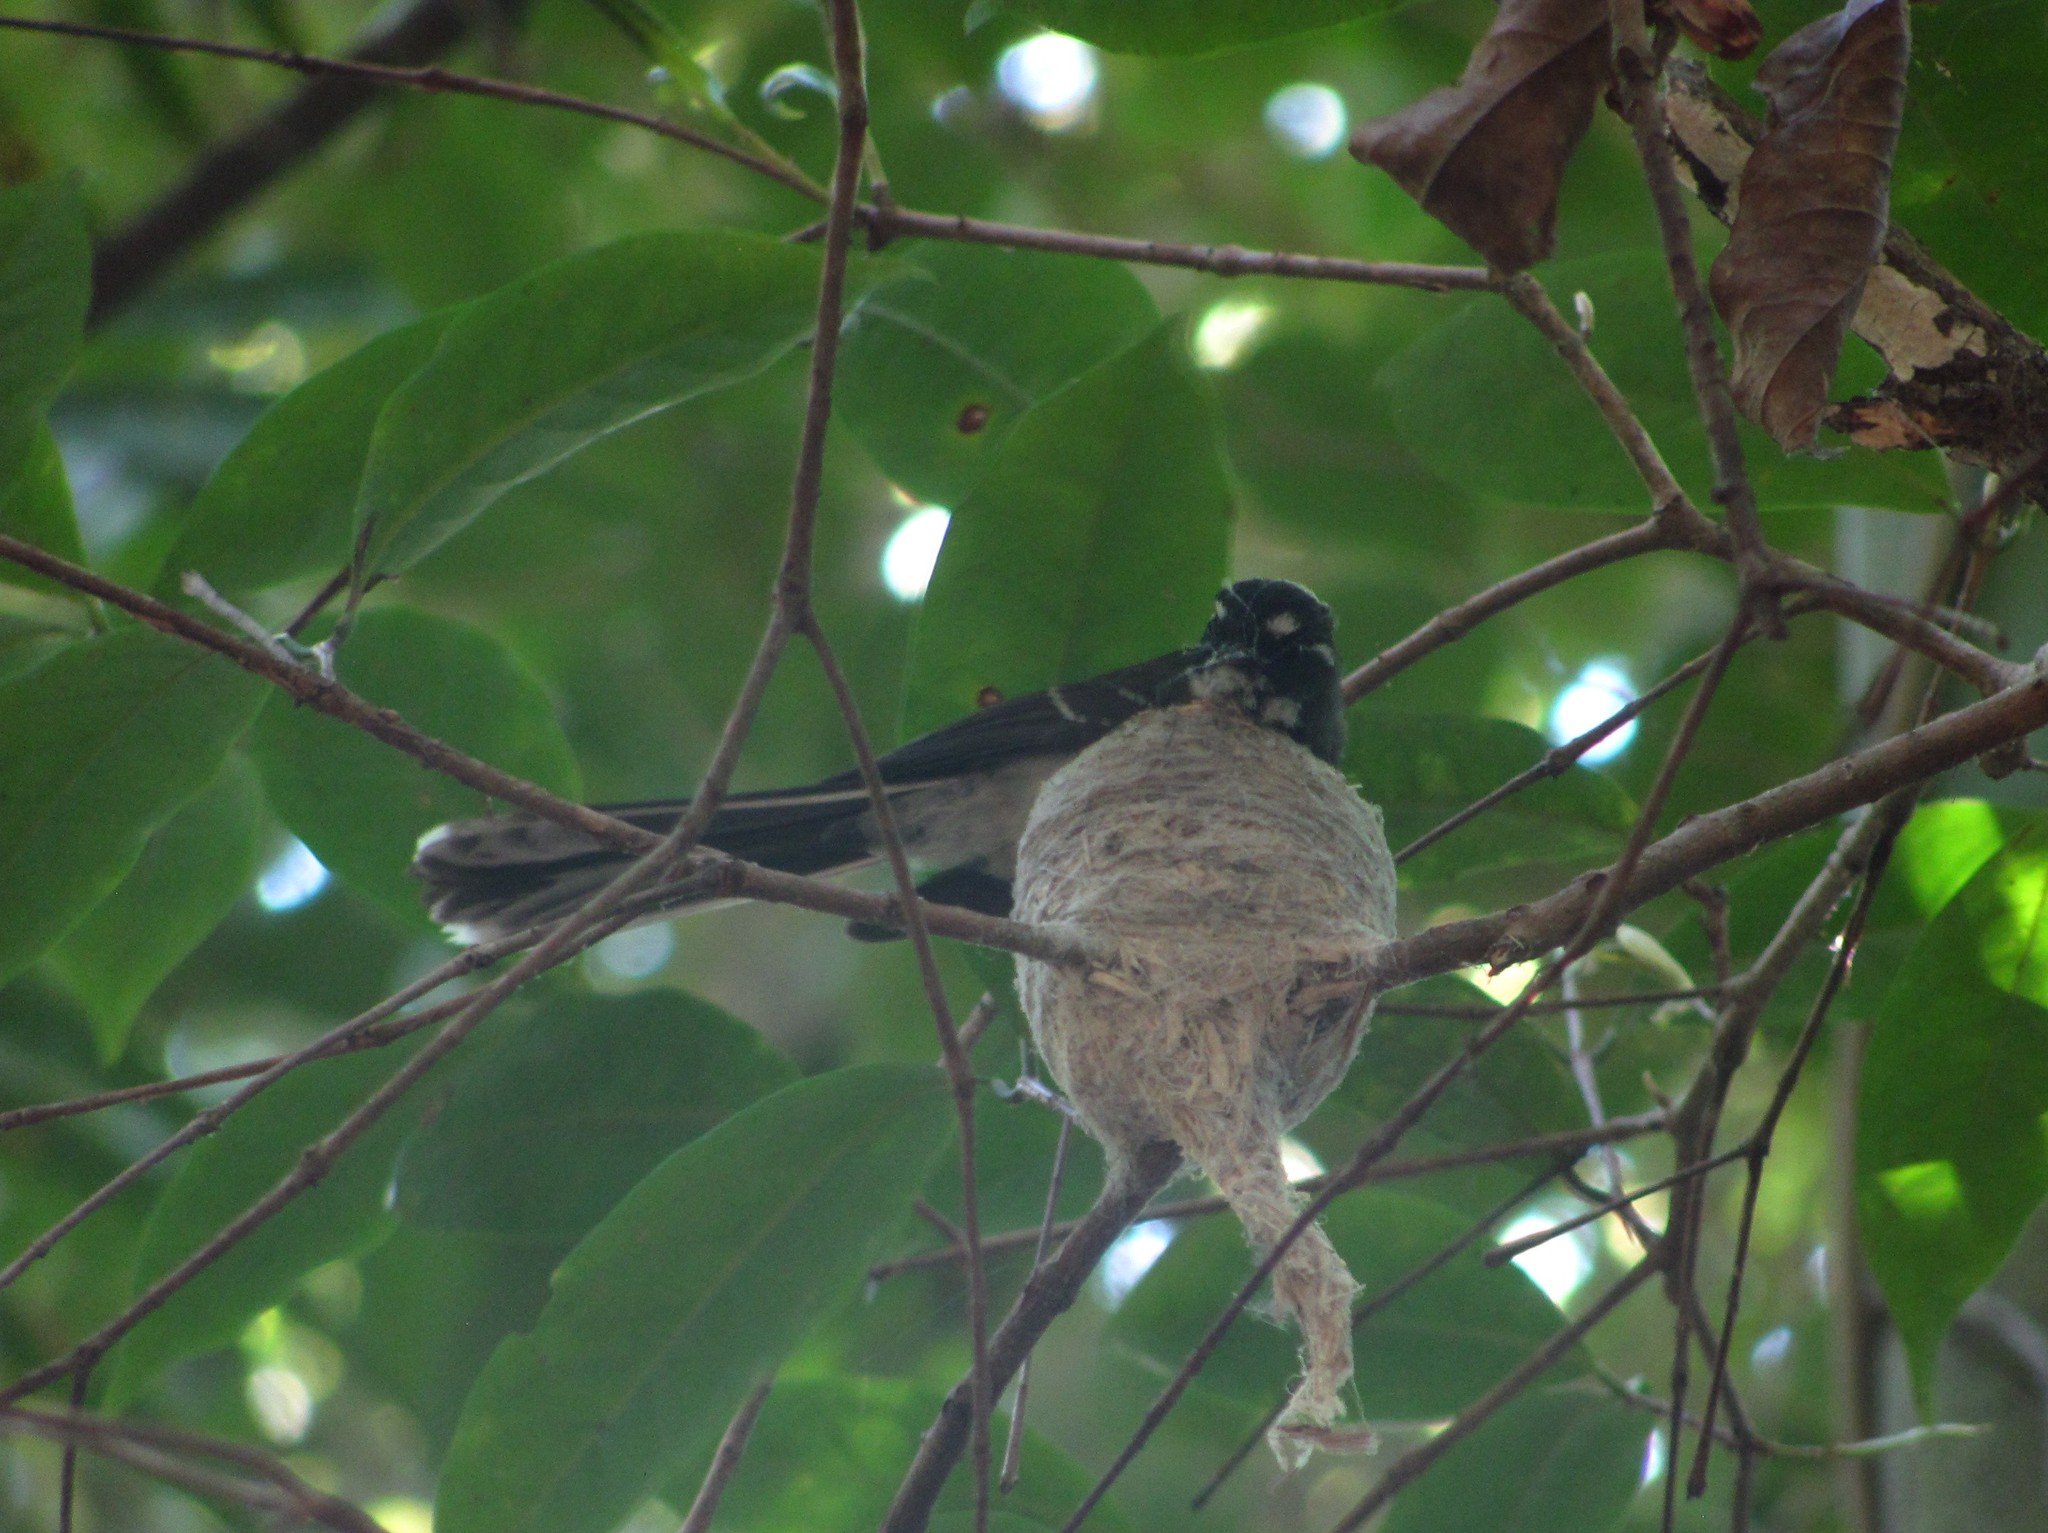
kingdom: Animalia
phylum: Chordata
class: Aves
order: Passeriformes
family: Rhipiduridae
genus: Rhipidura
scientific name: Rhipidura albiscapa
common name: Grey fantail
